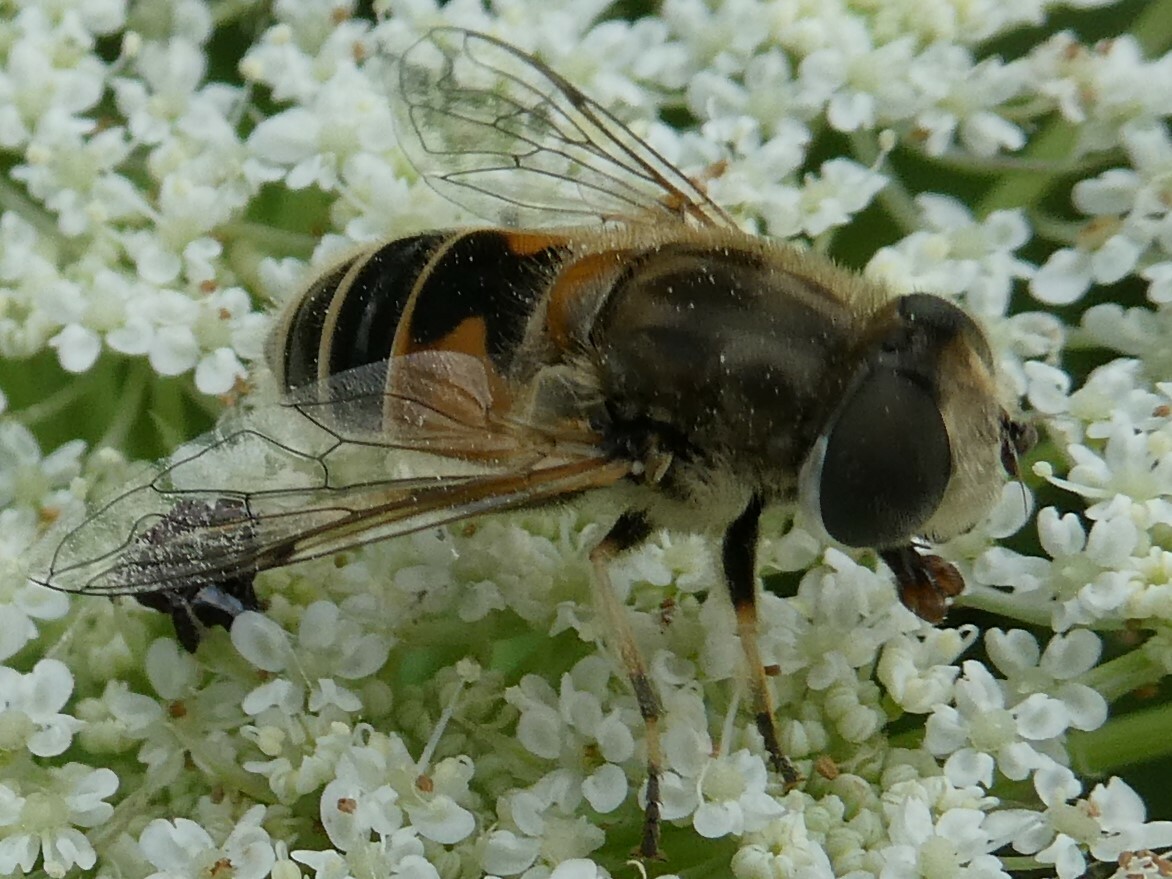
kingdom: Animalia
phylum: Arthropoda
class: Insecta
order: Diptera
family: Syrphidae
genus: Eristalis
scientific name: Eristalis arbustorum
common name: Hover fly
